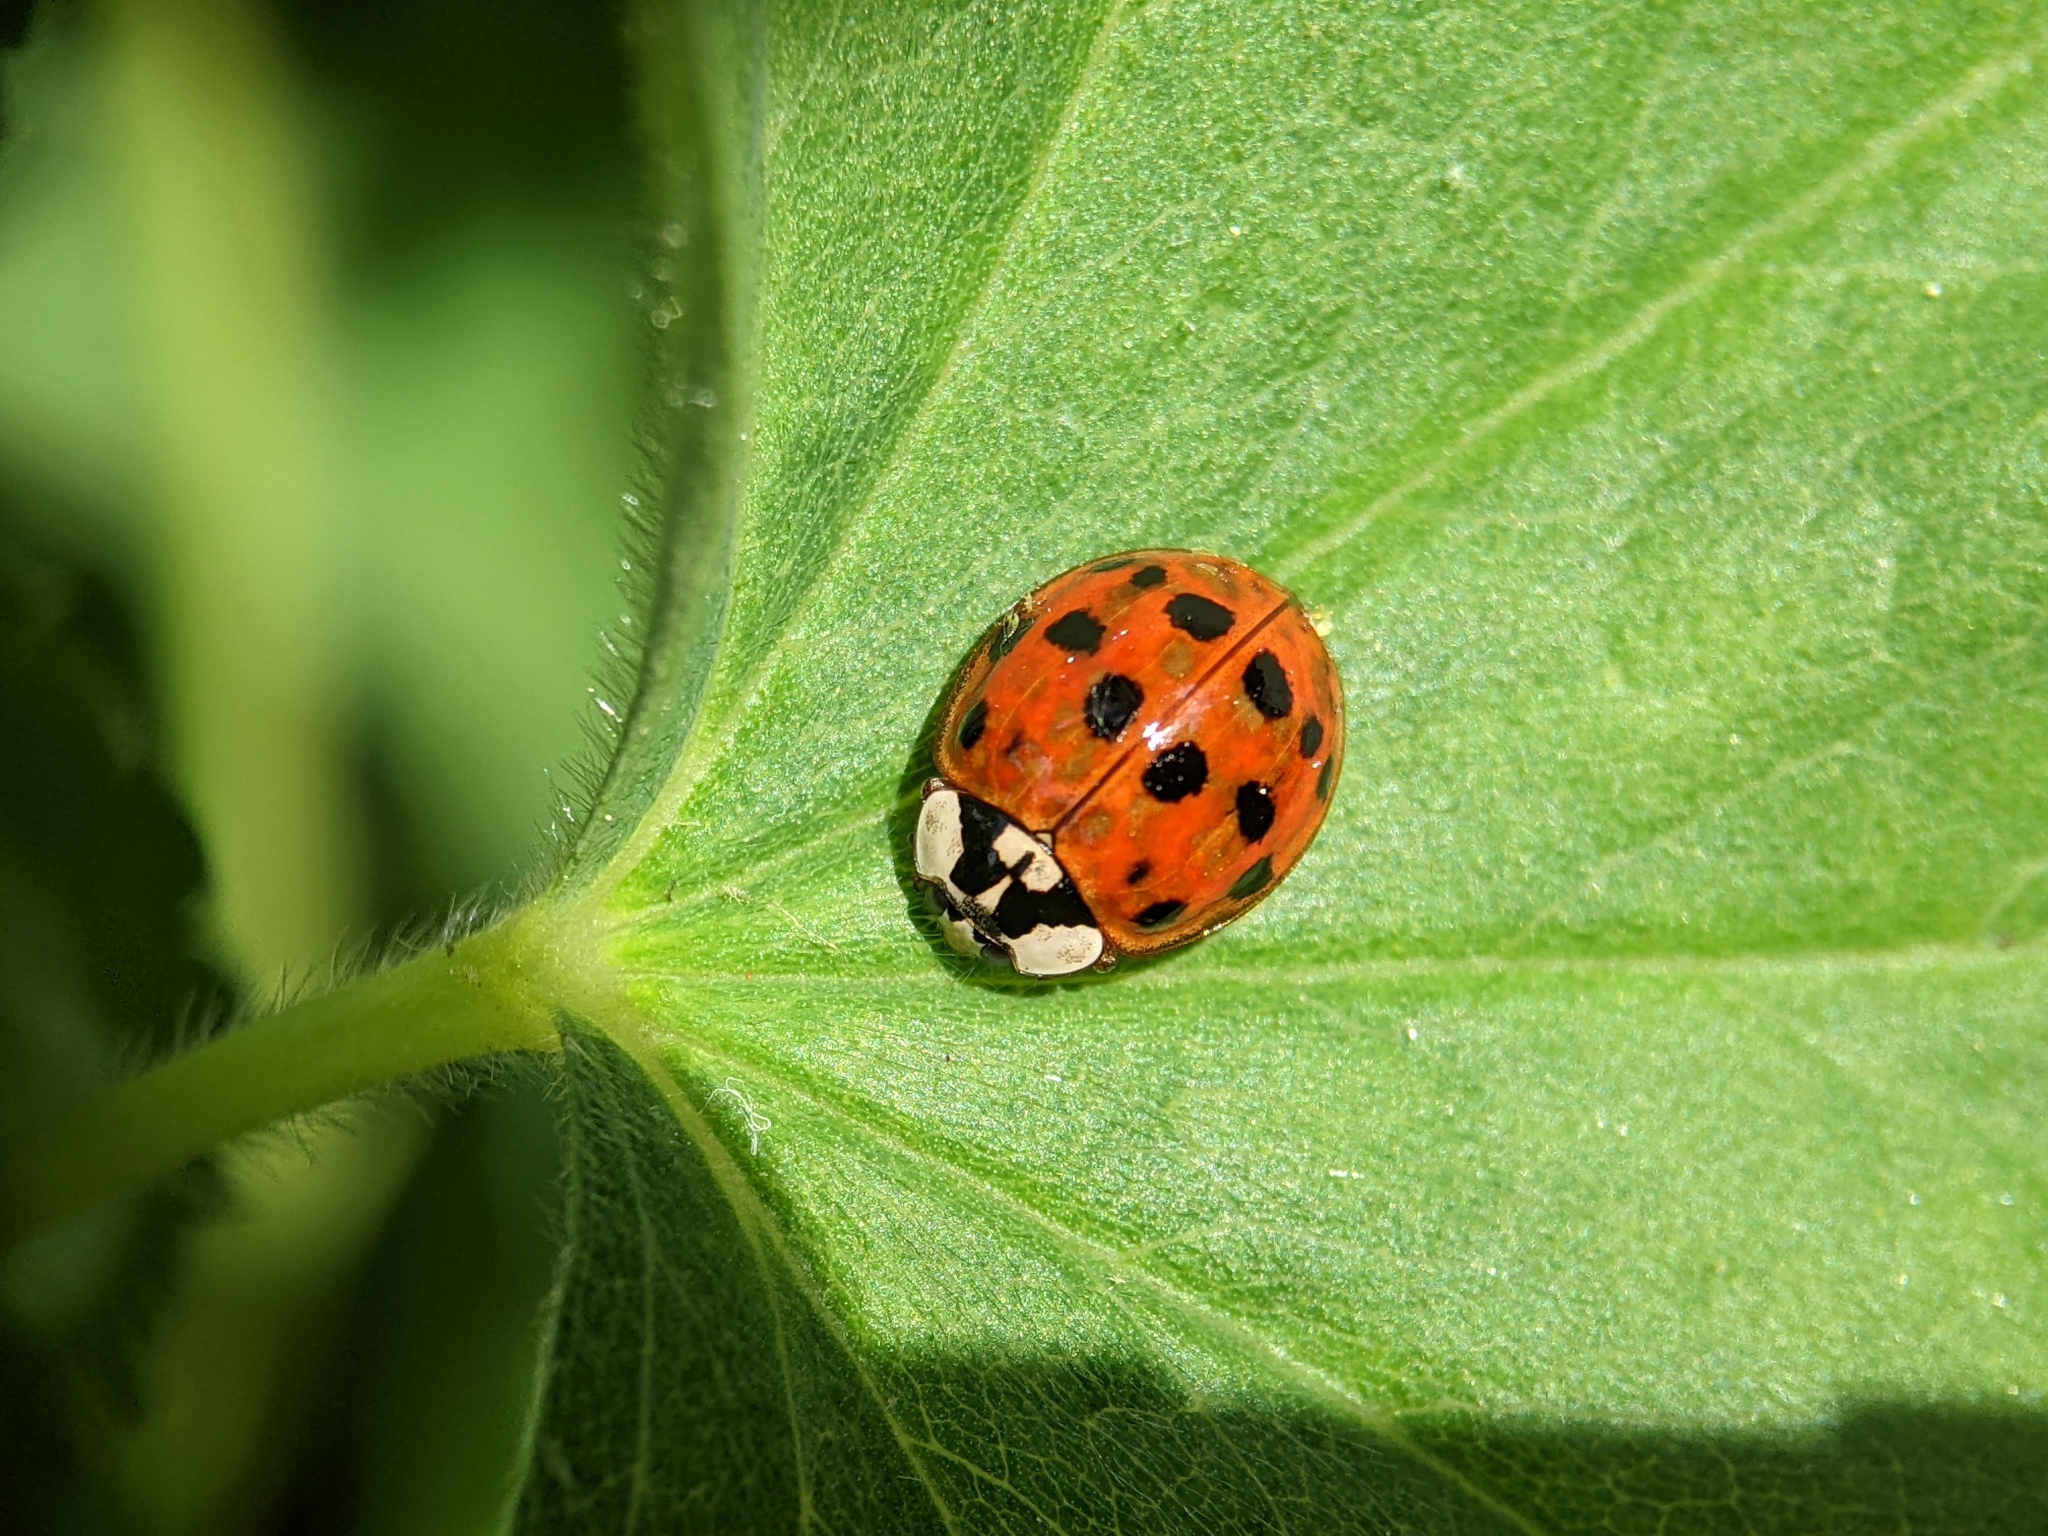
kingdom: Animalia
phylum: Arthropoda
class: Insecta
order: Coleoptera
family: Coccinellidae
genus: Harmonia
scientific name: Harmonia axyridis
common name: Harlequin ladybird
